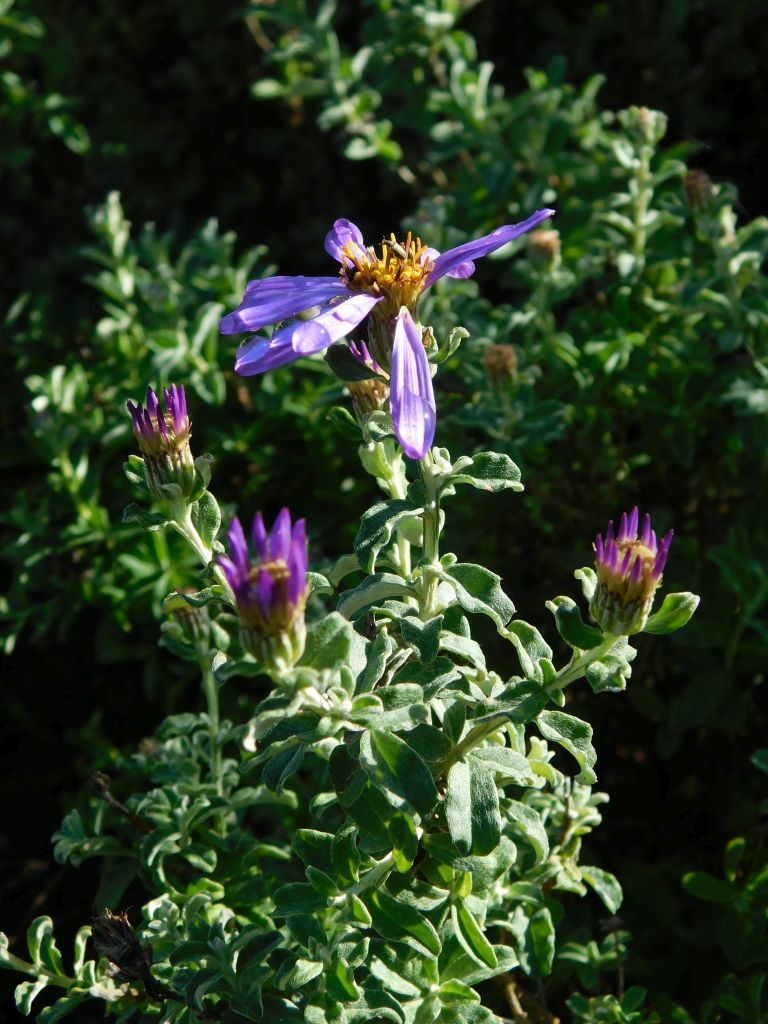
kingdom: Plantae
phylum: Tracheophyta
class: Magnoliopsida
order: Asterales
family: Asteraceae
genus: Printzia
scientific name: Printzia polifolia
